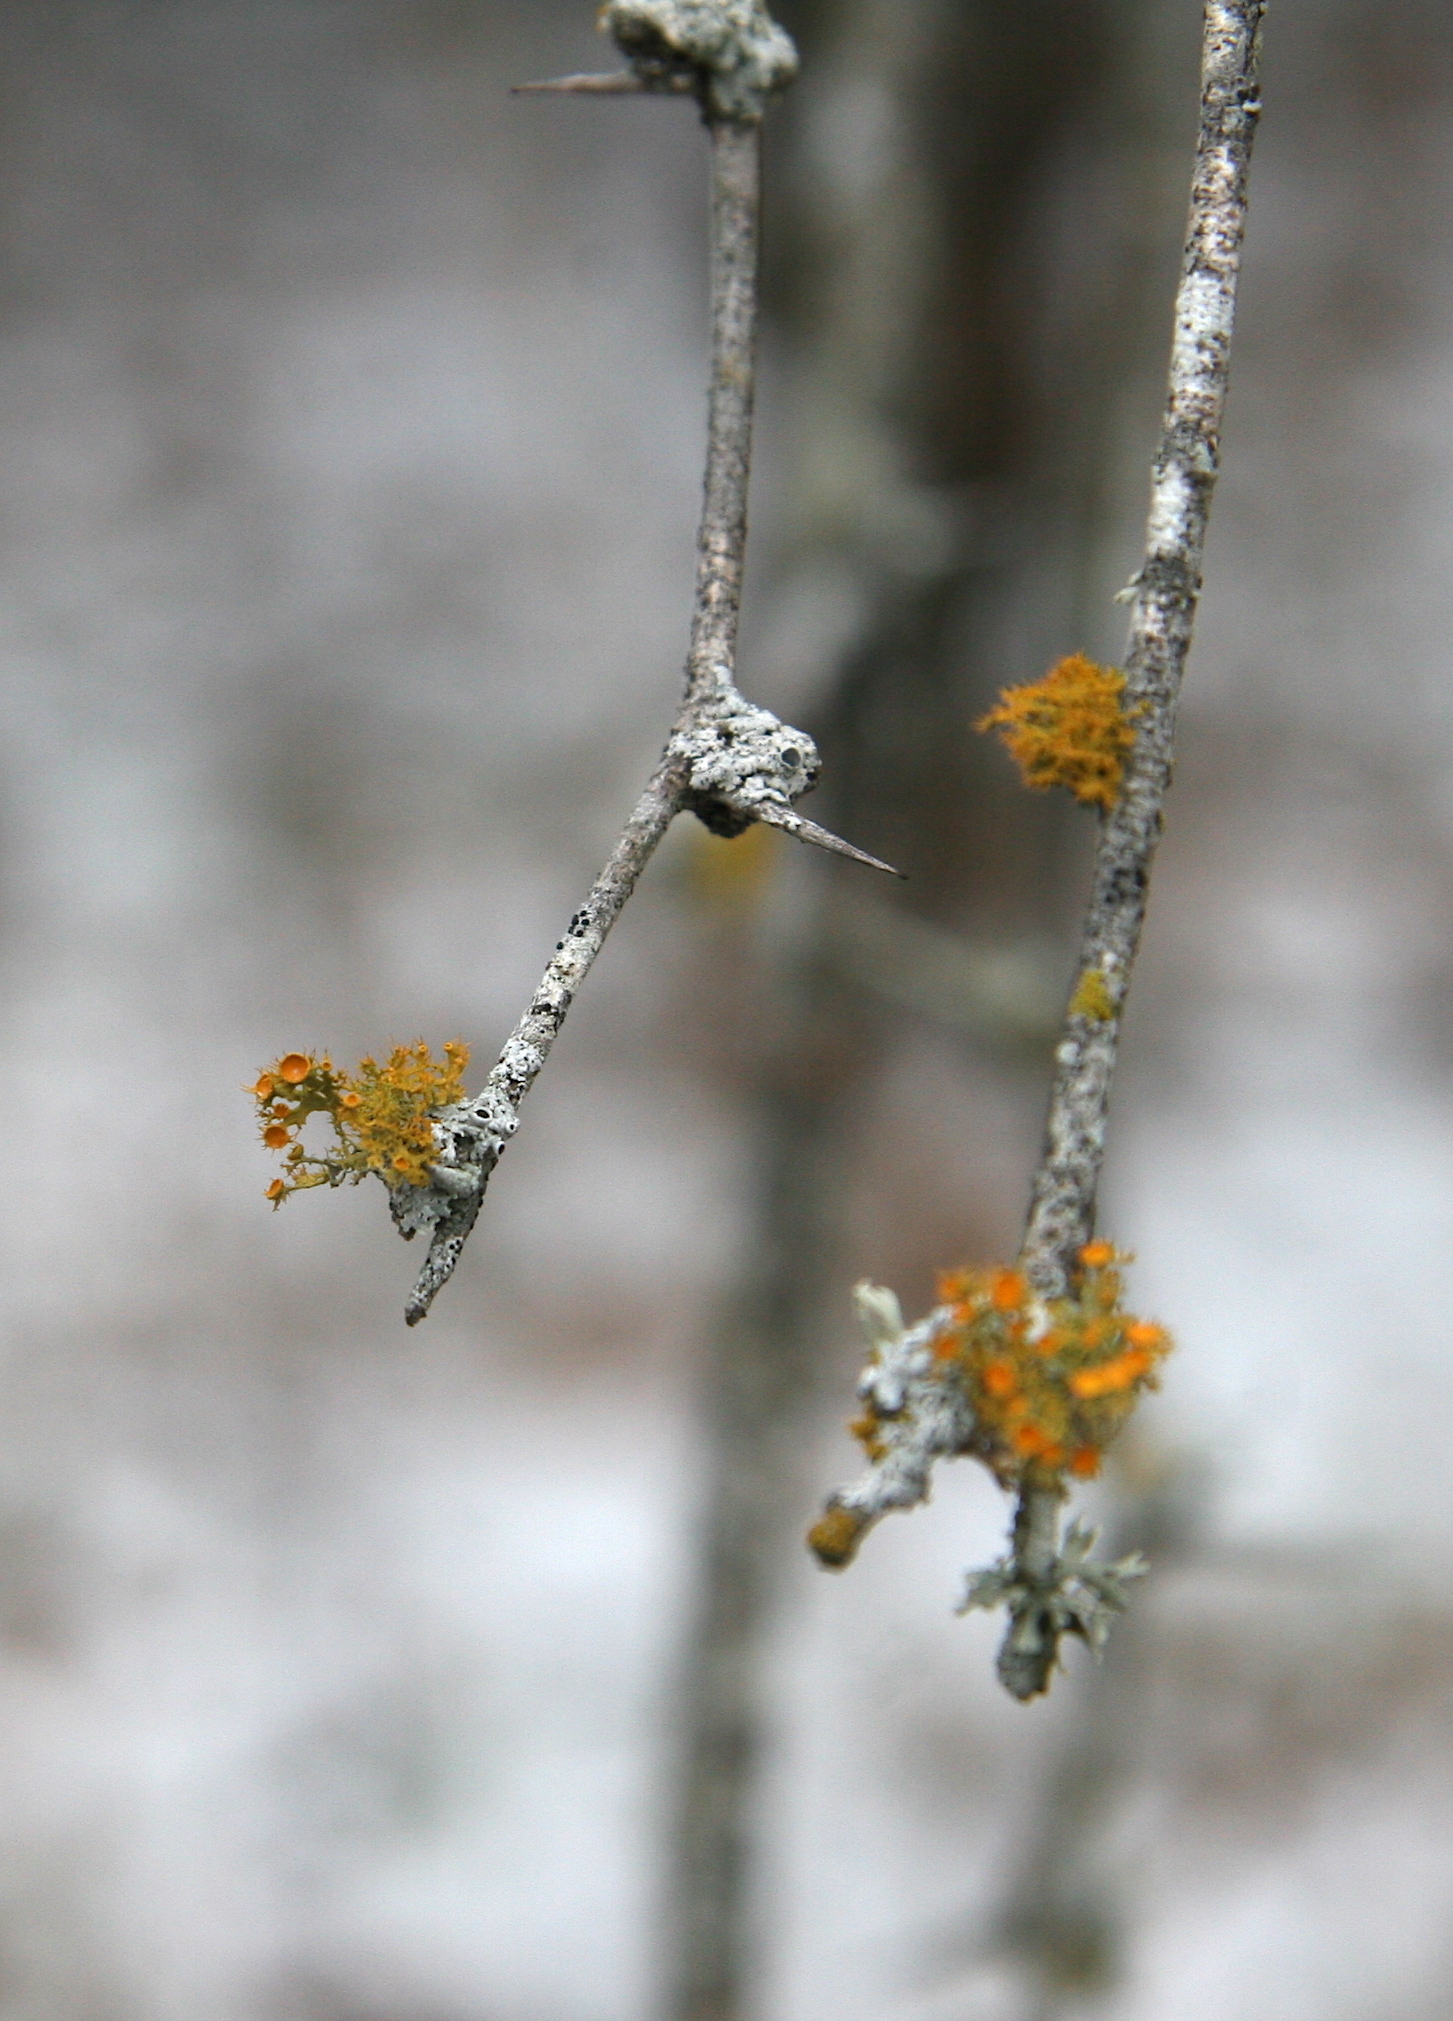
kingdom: Fungi
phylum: Ascomycota
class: Lecanoromycetes
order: Teloschistales
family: Teloschistaceae
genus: Niorma
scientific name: Niorma chrysophthalma
